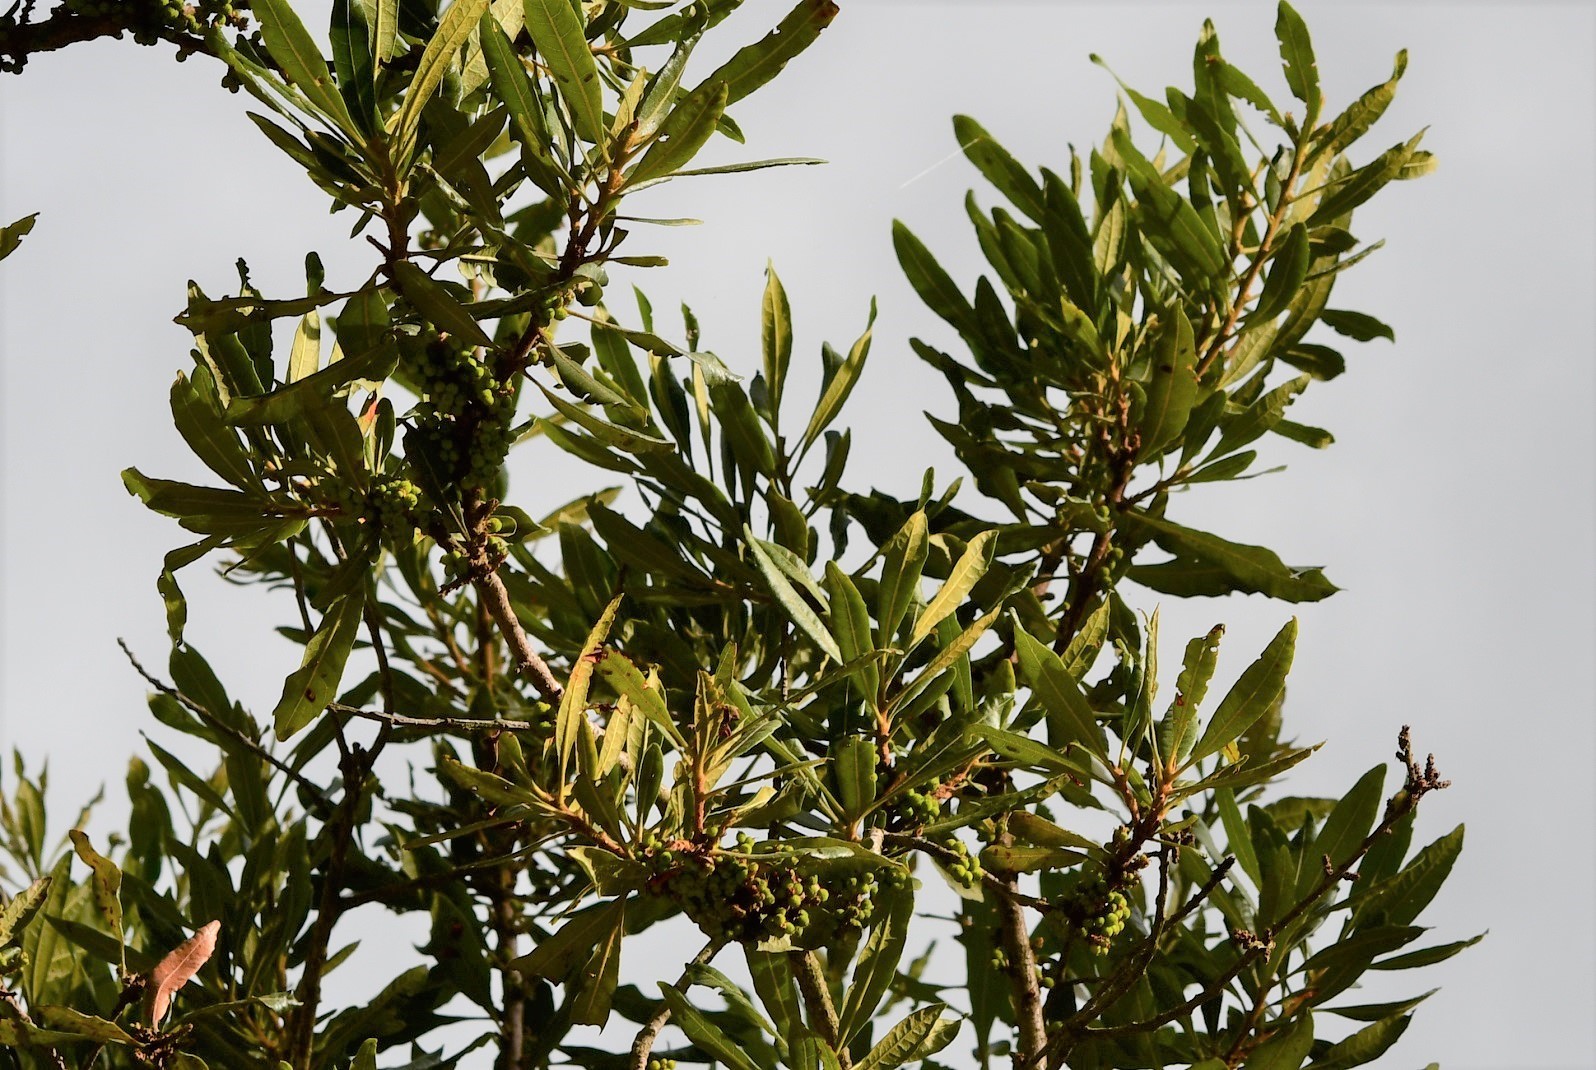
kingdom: Plantae
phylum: Tracheophyta
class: Magnoliopsida
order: Fagales
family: Myricaceae
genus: Morella
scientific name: Morella cerifera
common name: Wax myrtle
